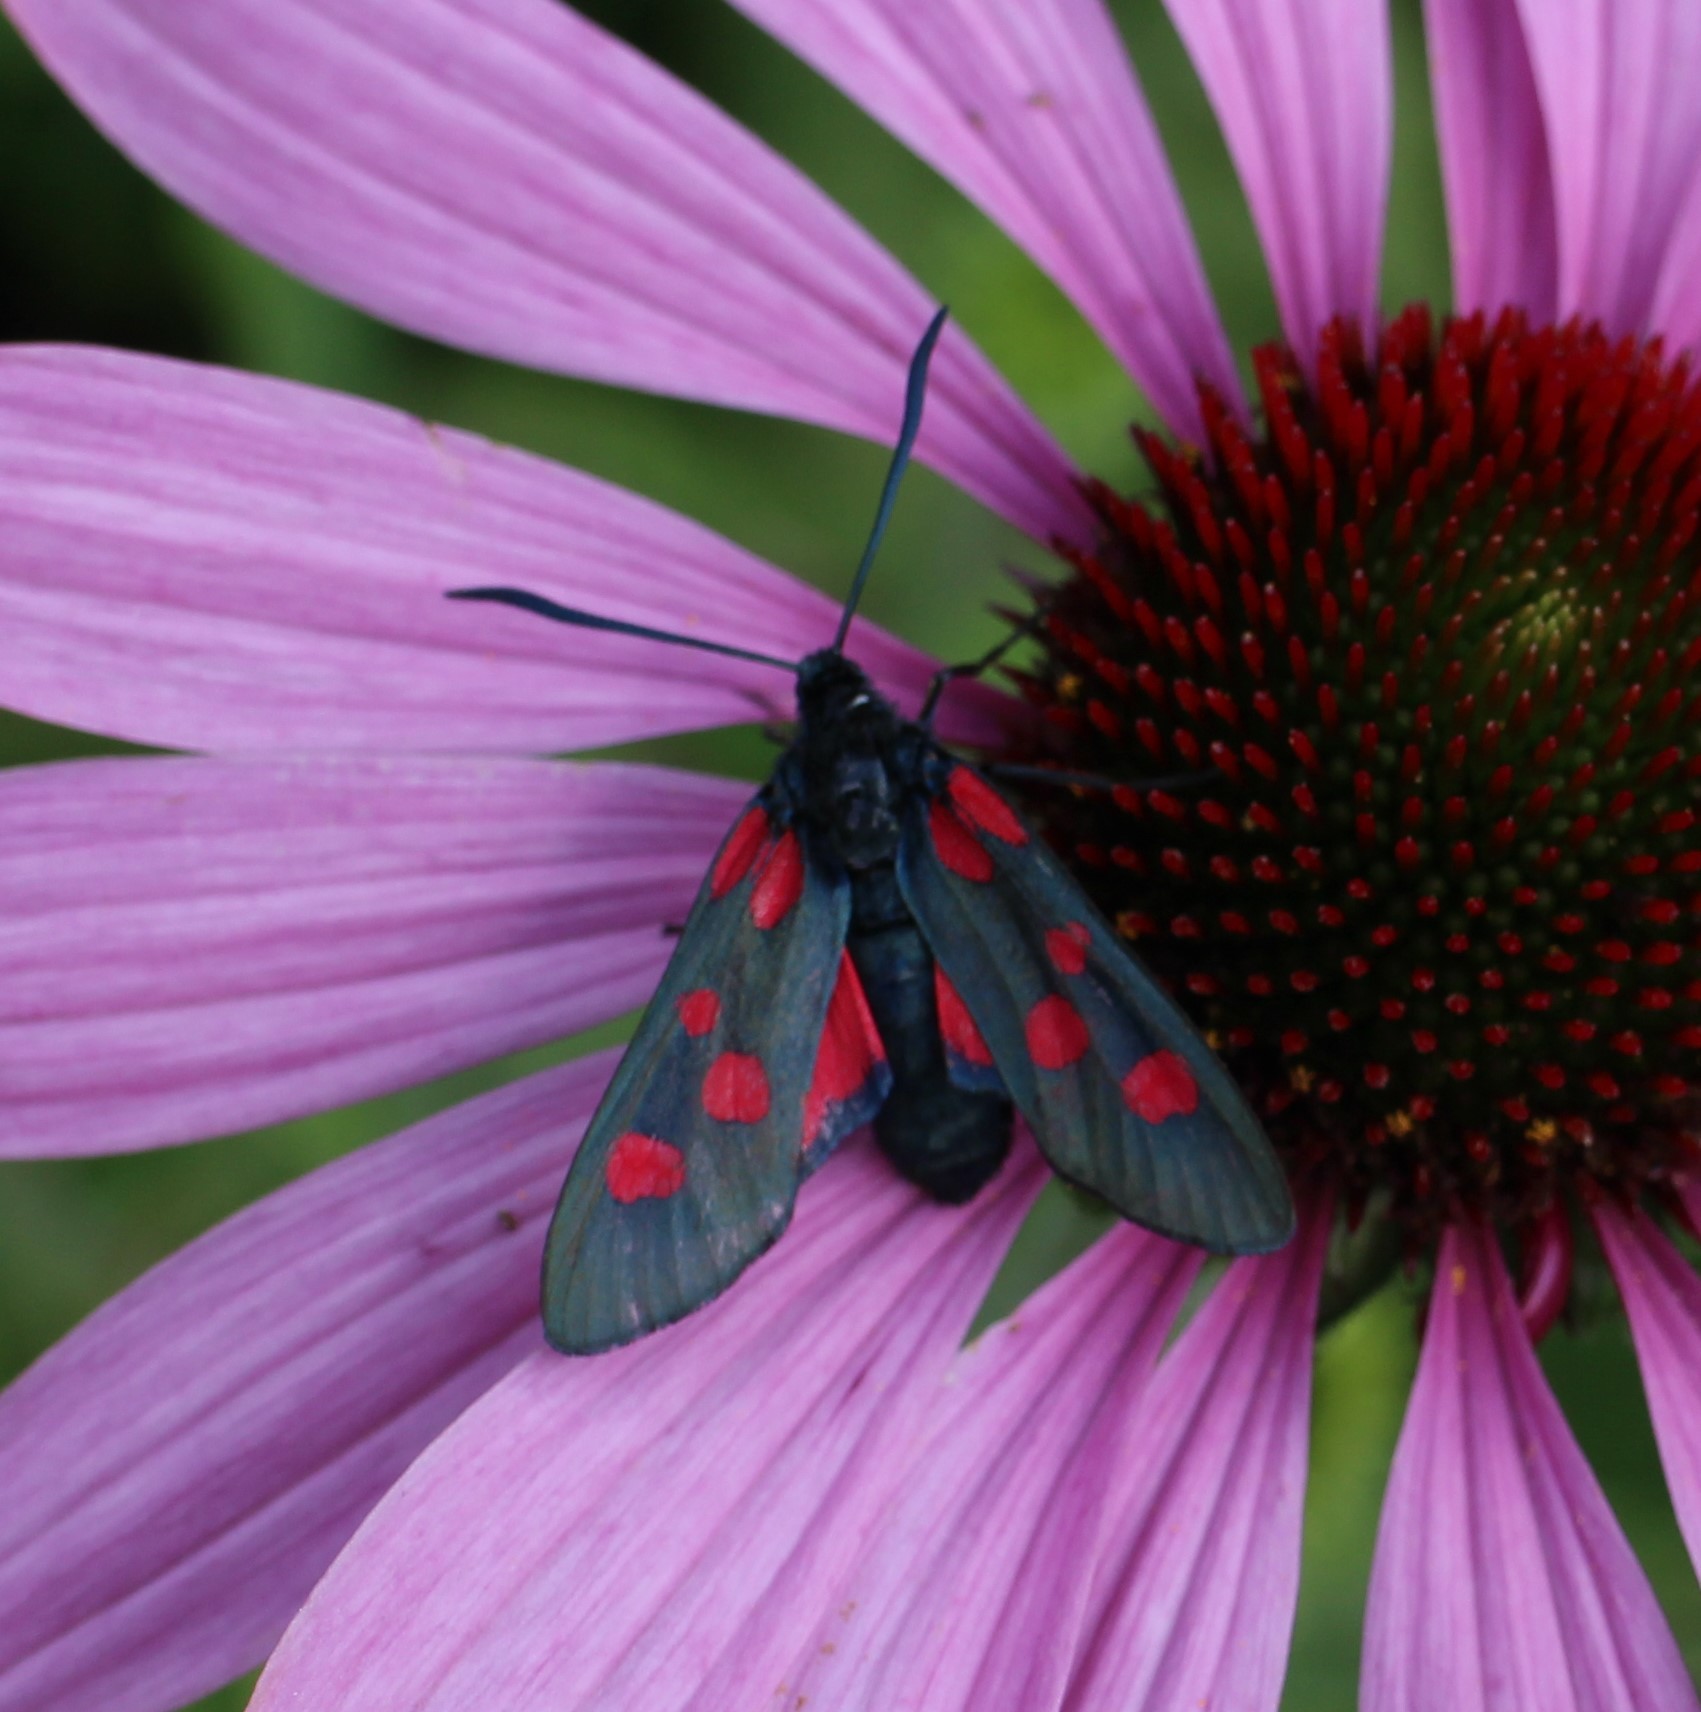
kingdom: Animalia
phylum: Arthropoda
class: Insecta
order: Lepidoptera
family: Zygaenidae
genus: Zygaena
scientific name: Zygaena lonicerae
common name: Narrow-bordered five-spot burnet
